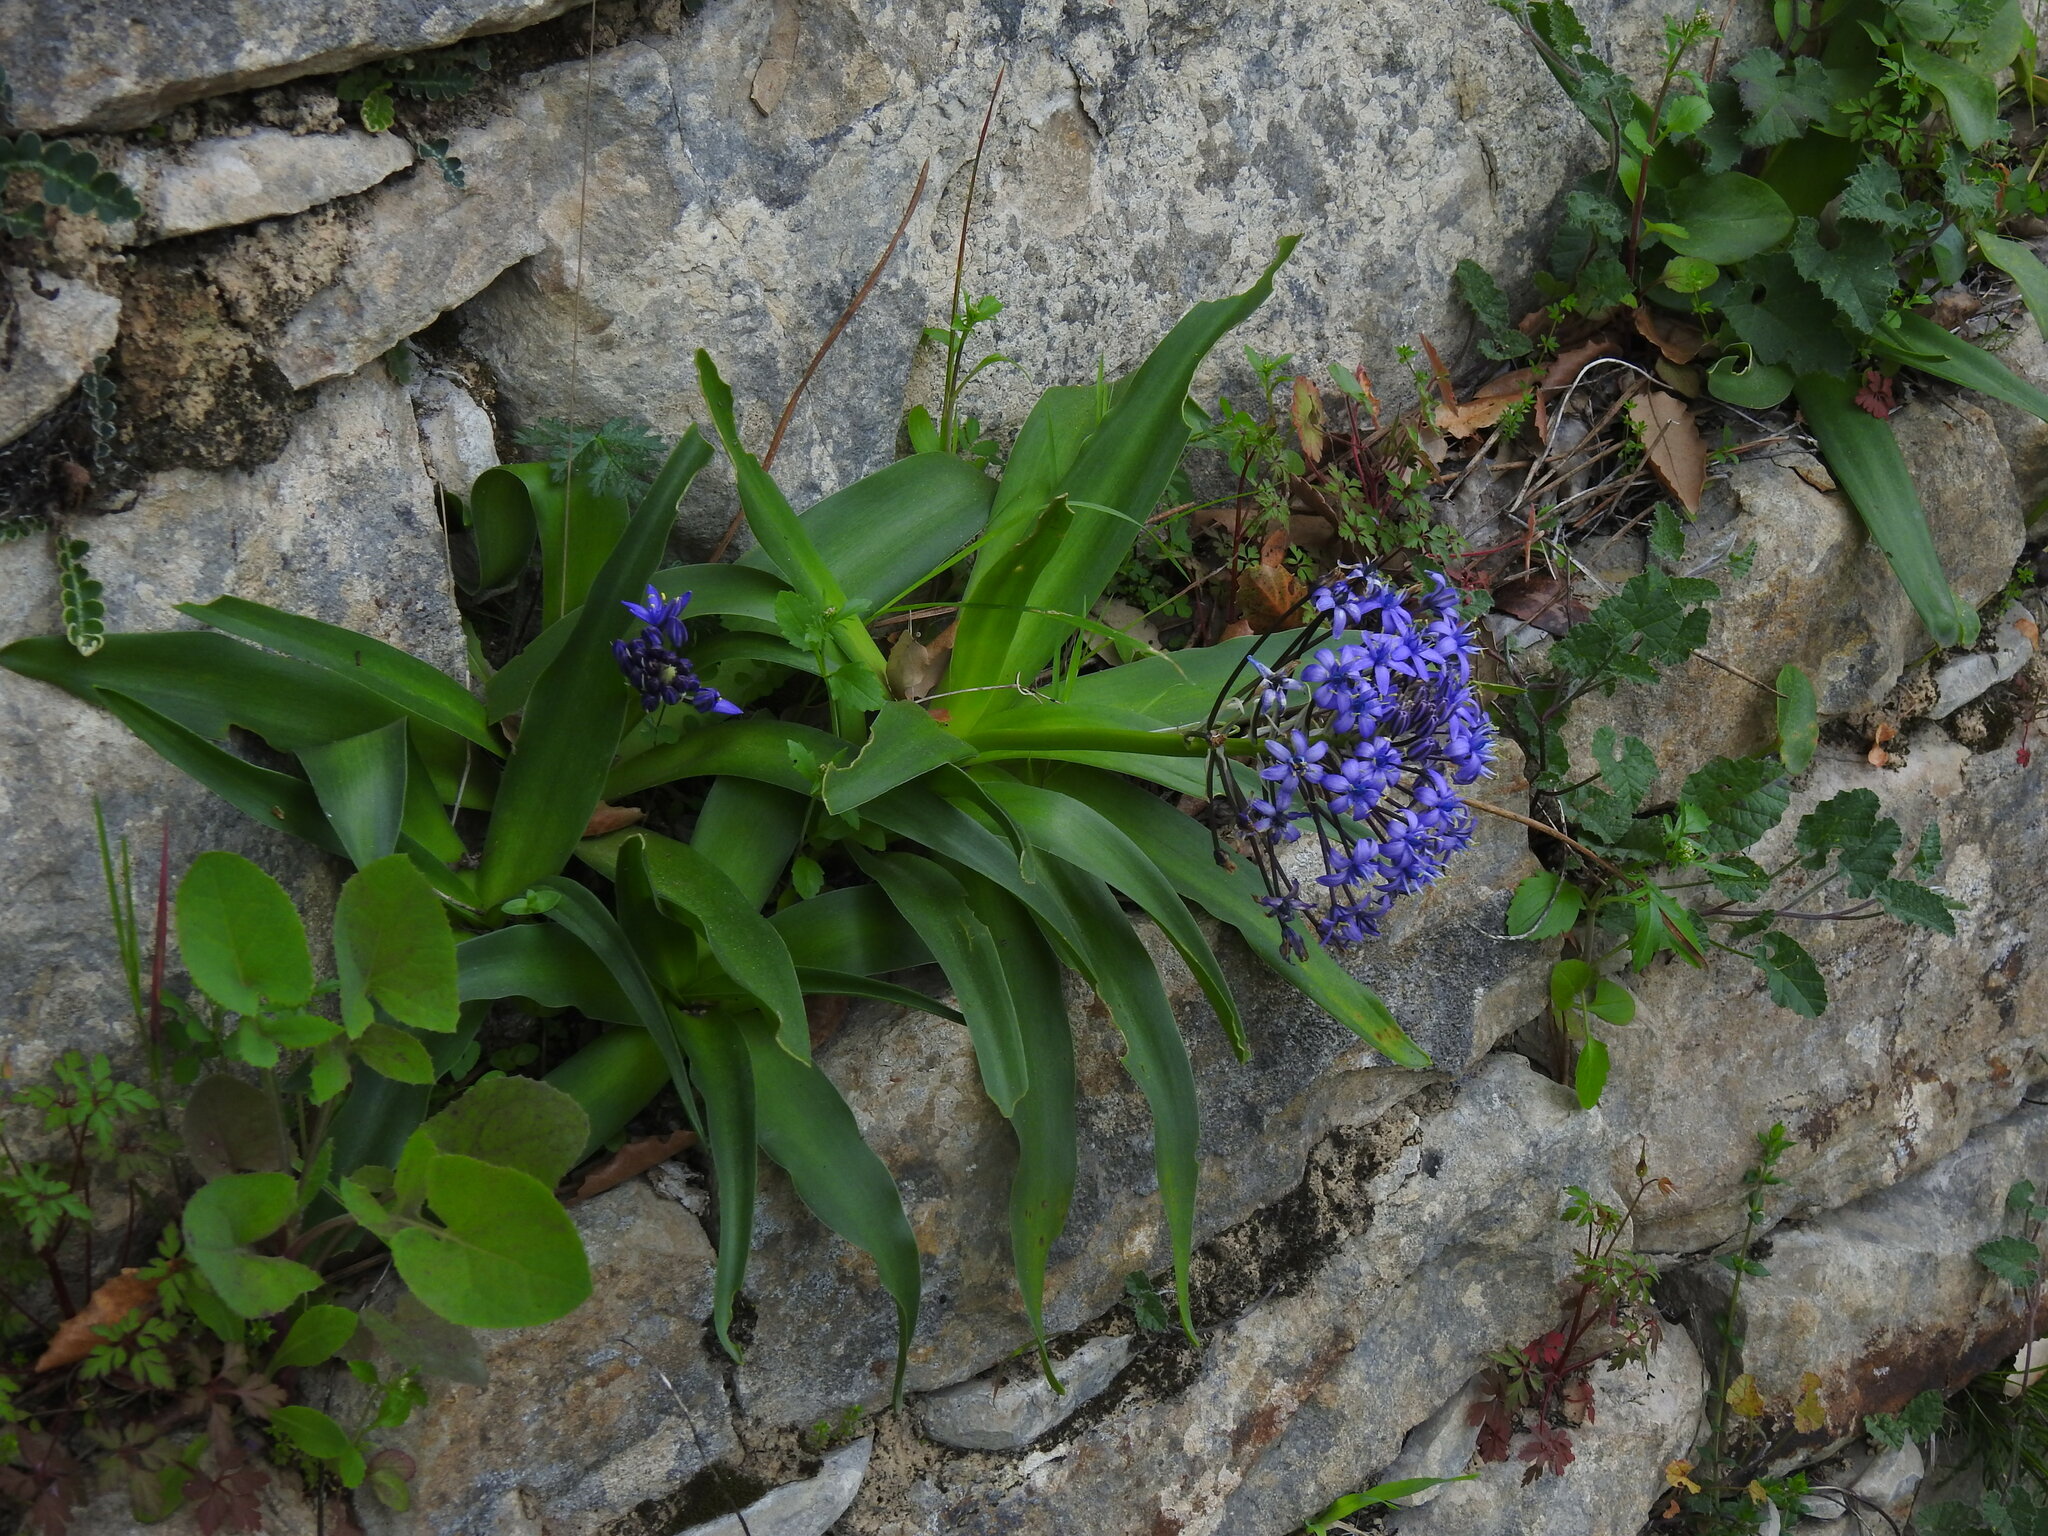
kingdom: Plantae
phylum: Tracheophyta
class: Liliopsida
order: Asparagales
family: Asparagaceae
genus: Scilla
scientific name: Scilla peruviana
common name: Portuguese squill
